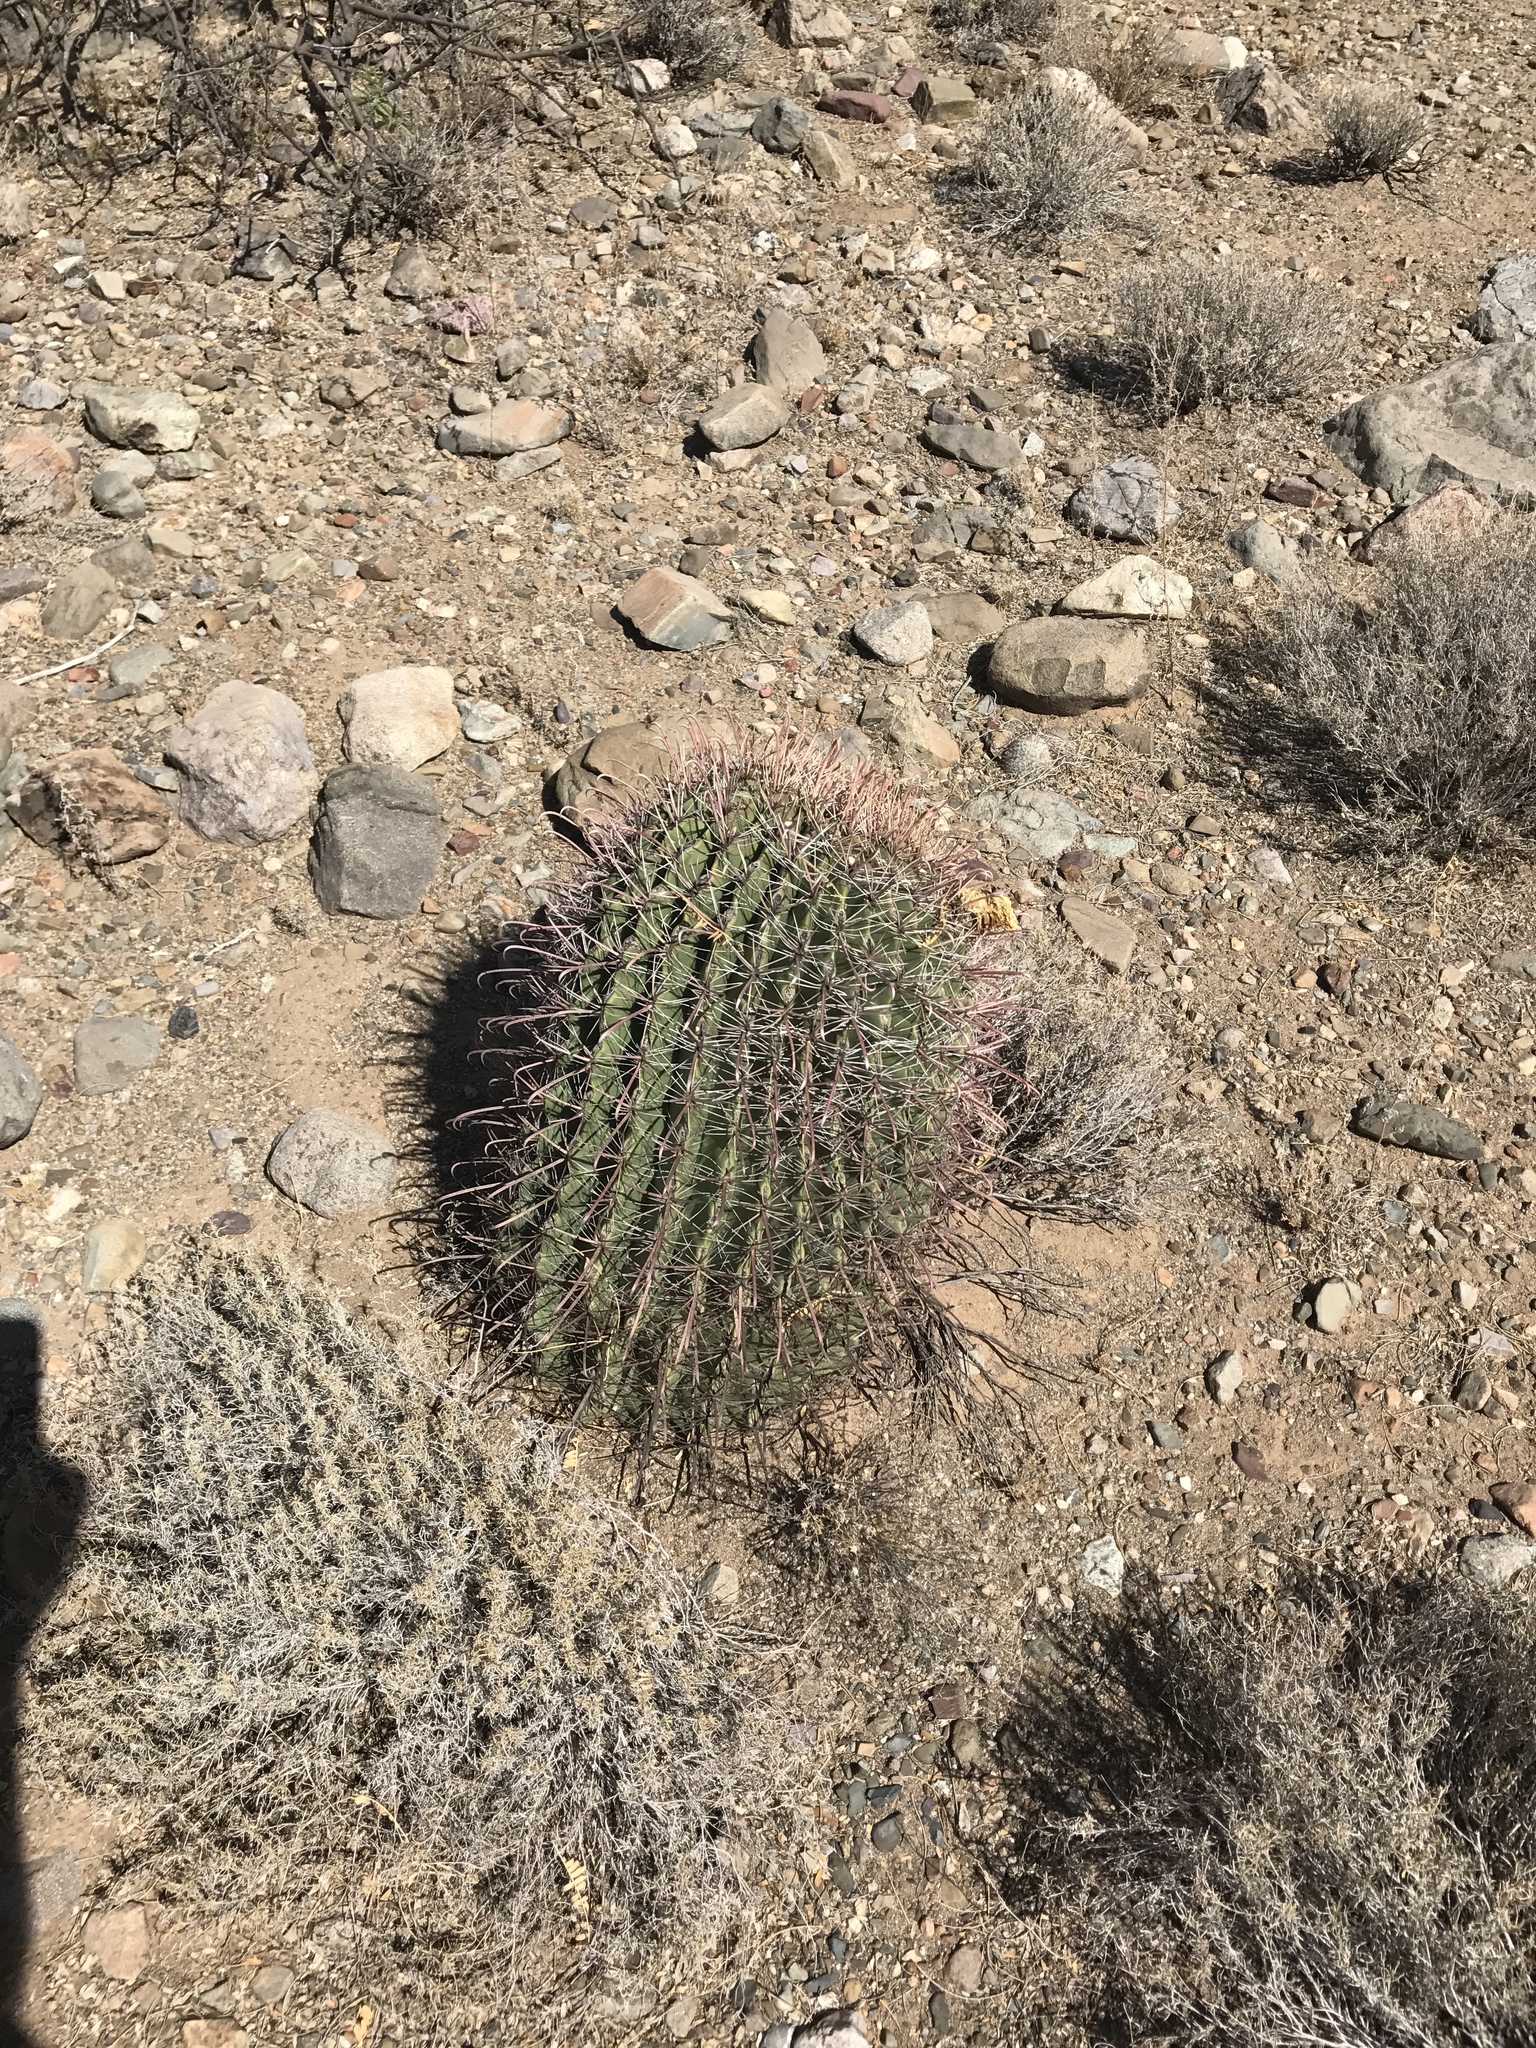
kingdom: Plantae
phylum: Tracheophyta
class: Magnoliopsida
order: Caryophyllales
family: Cactaceae
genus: Ferocactus
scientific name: Ferocactus wislizeni
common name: Candy barrel cactus
